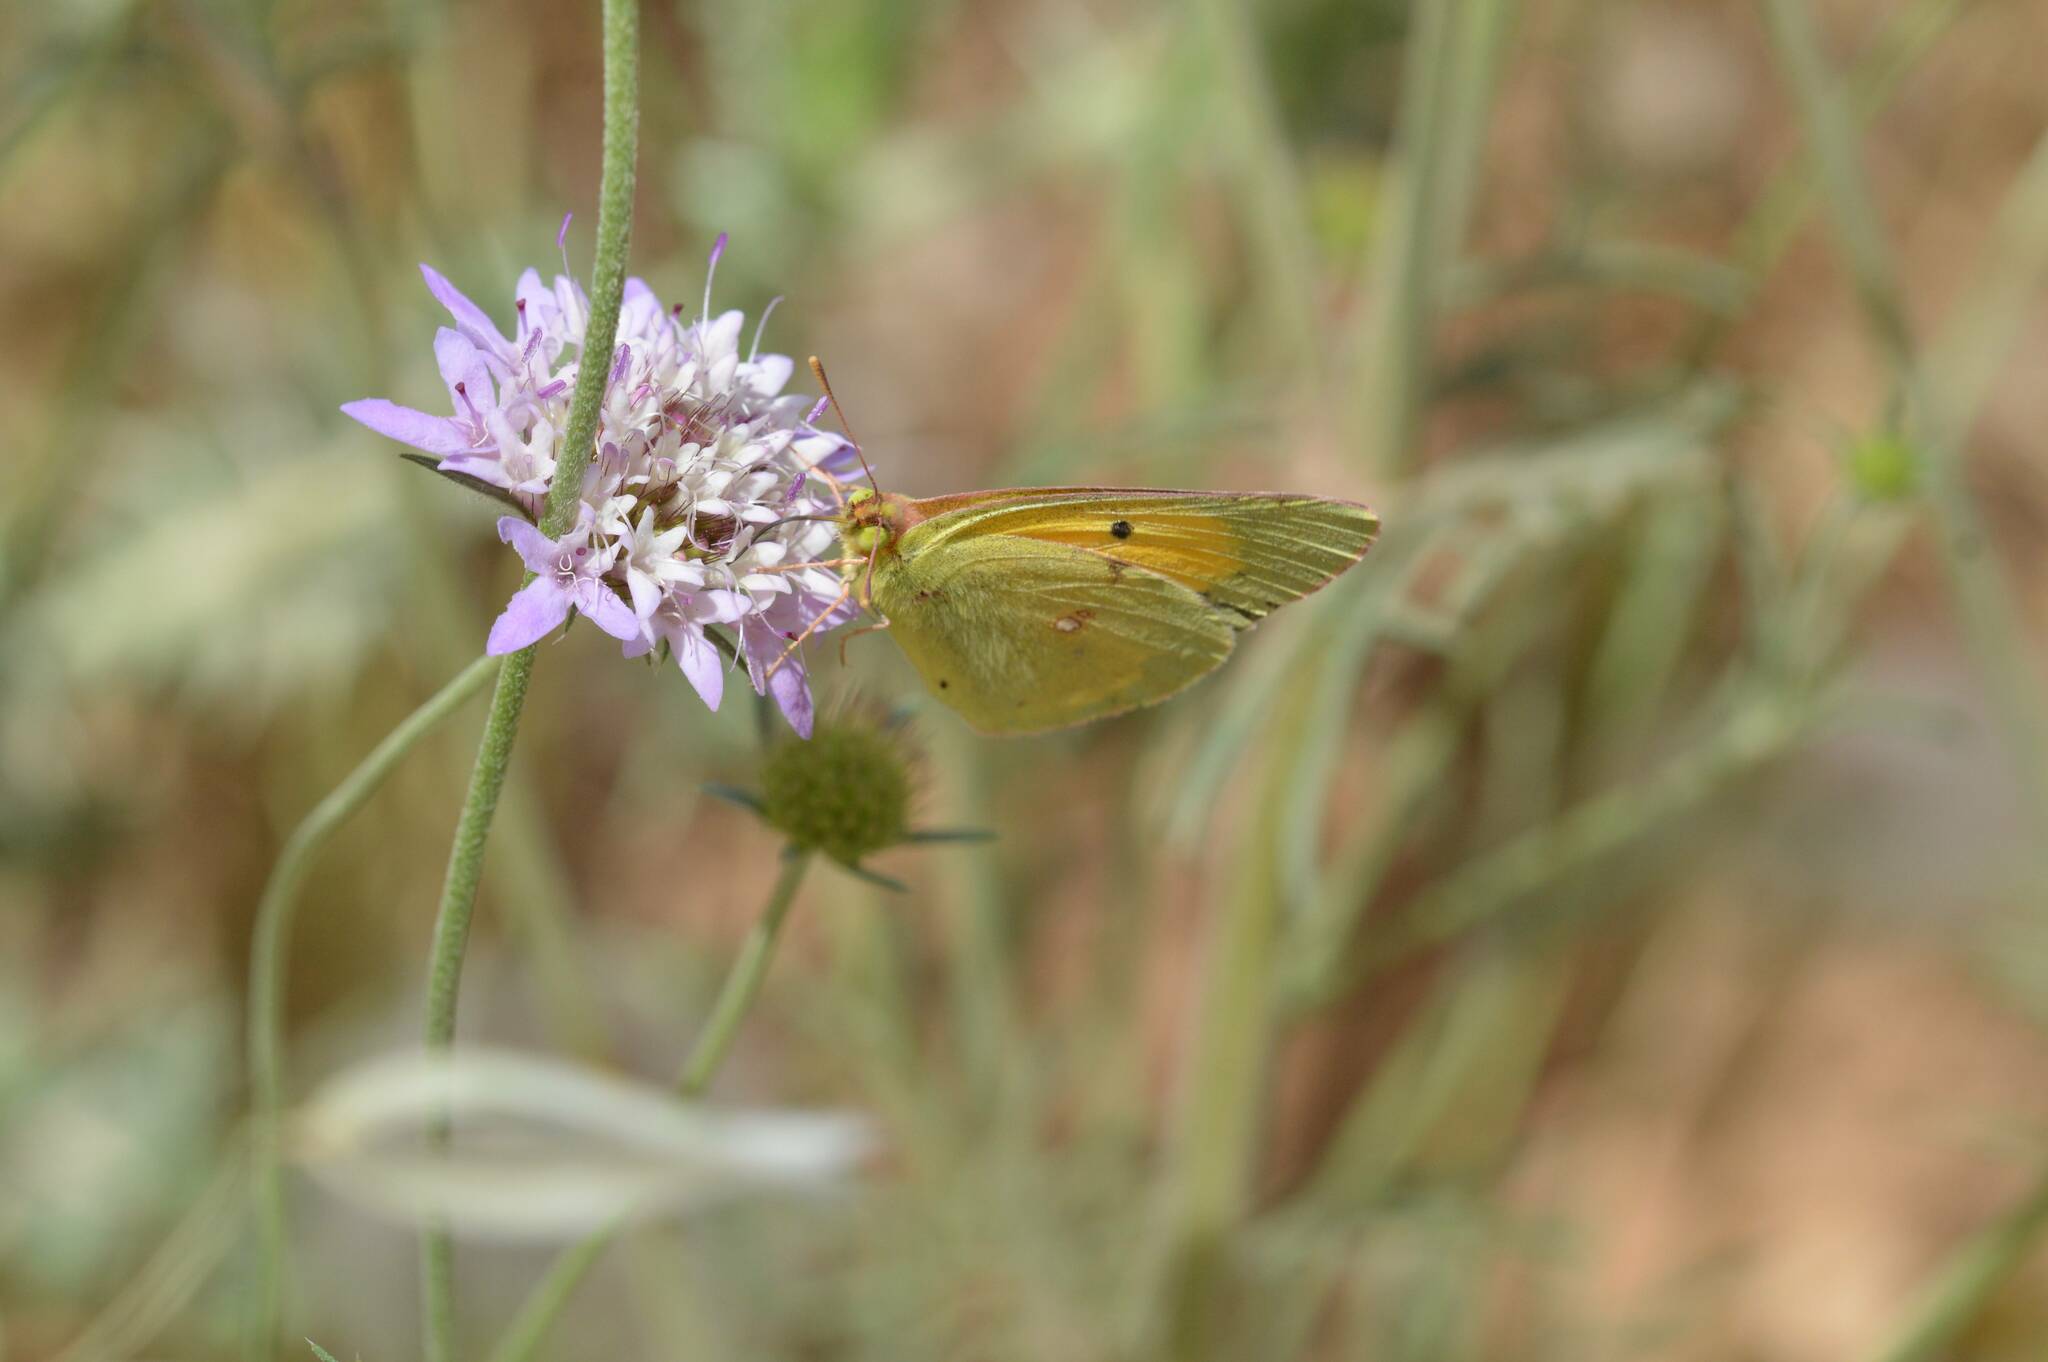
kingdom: Animalia
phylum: Arthropoda
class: Insecta
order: Lepidoptera
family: Pieridae
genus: Colias
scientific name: Colias croceus
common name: Clouded yellow
